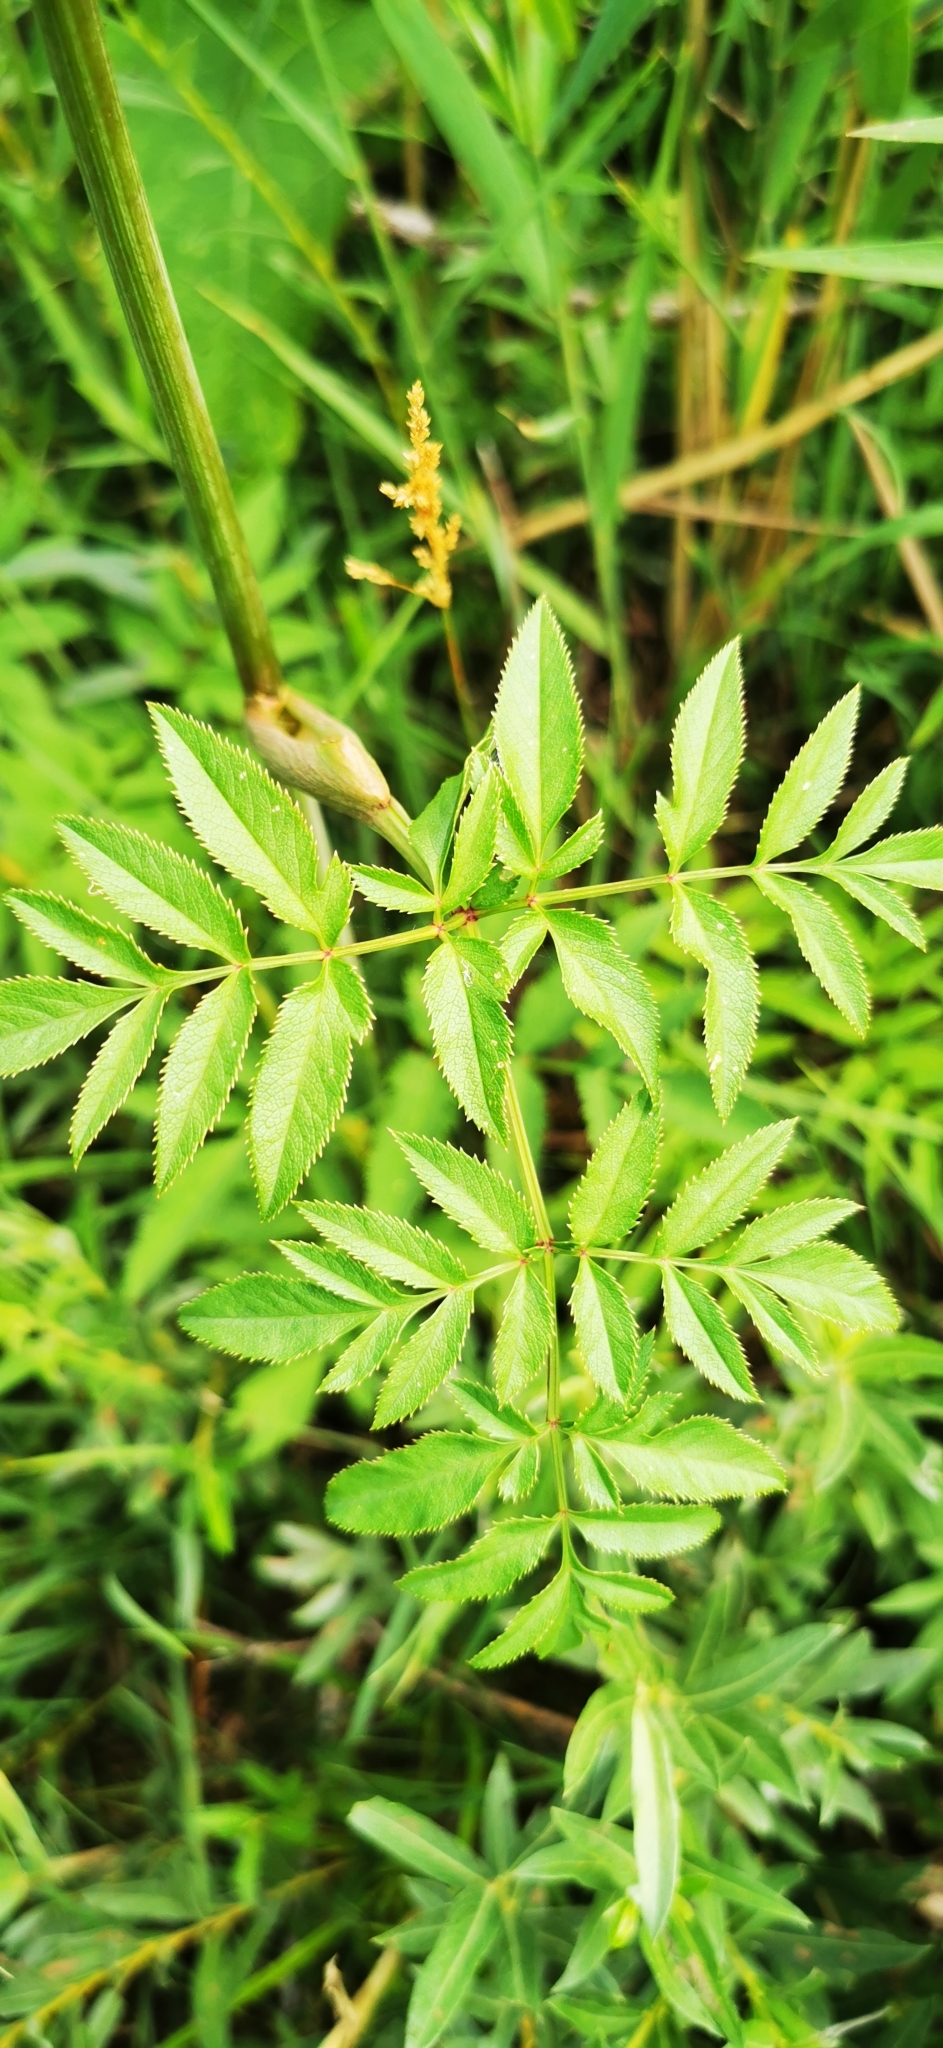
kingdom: Plantae
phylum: Tracheophyta
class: Magnoliopsida
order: Apiales
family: Apiaceae
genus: Angelica
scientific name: Angelica sylvestris
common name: Wild angelica
